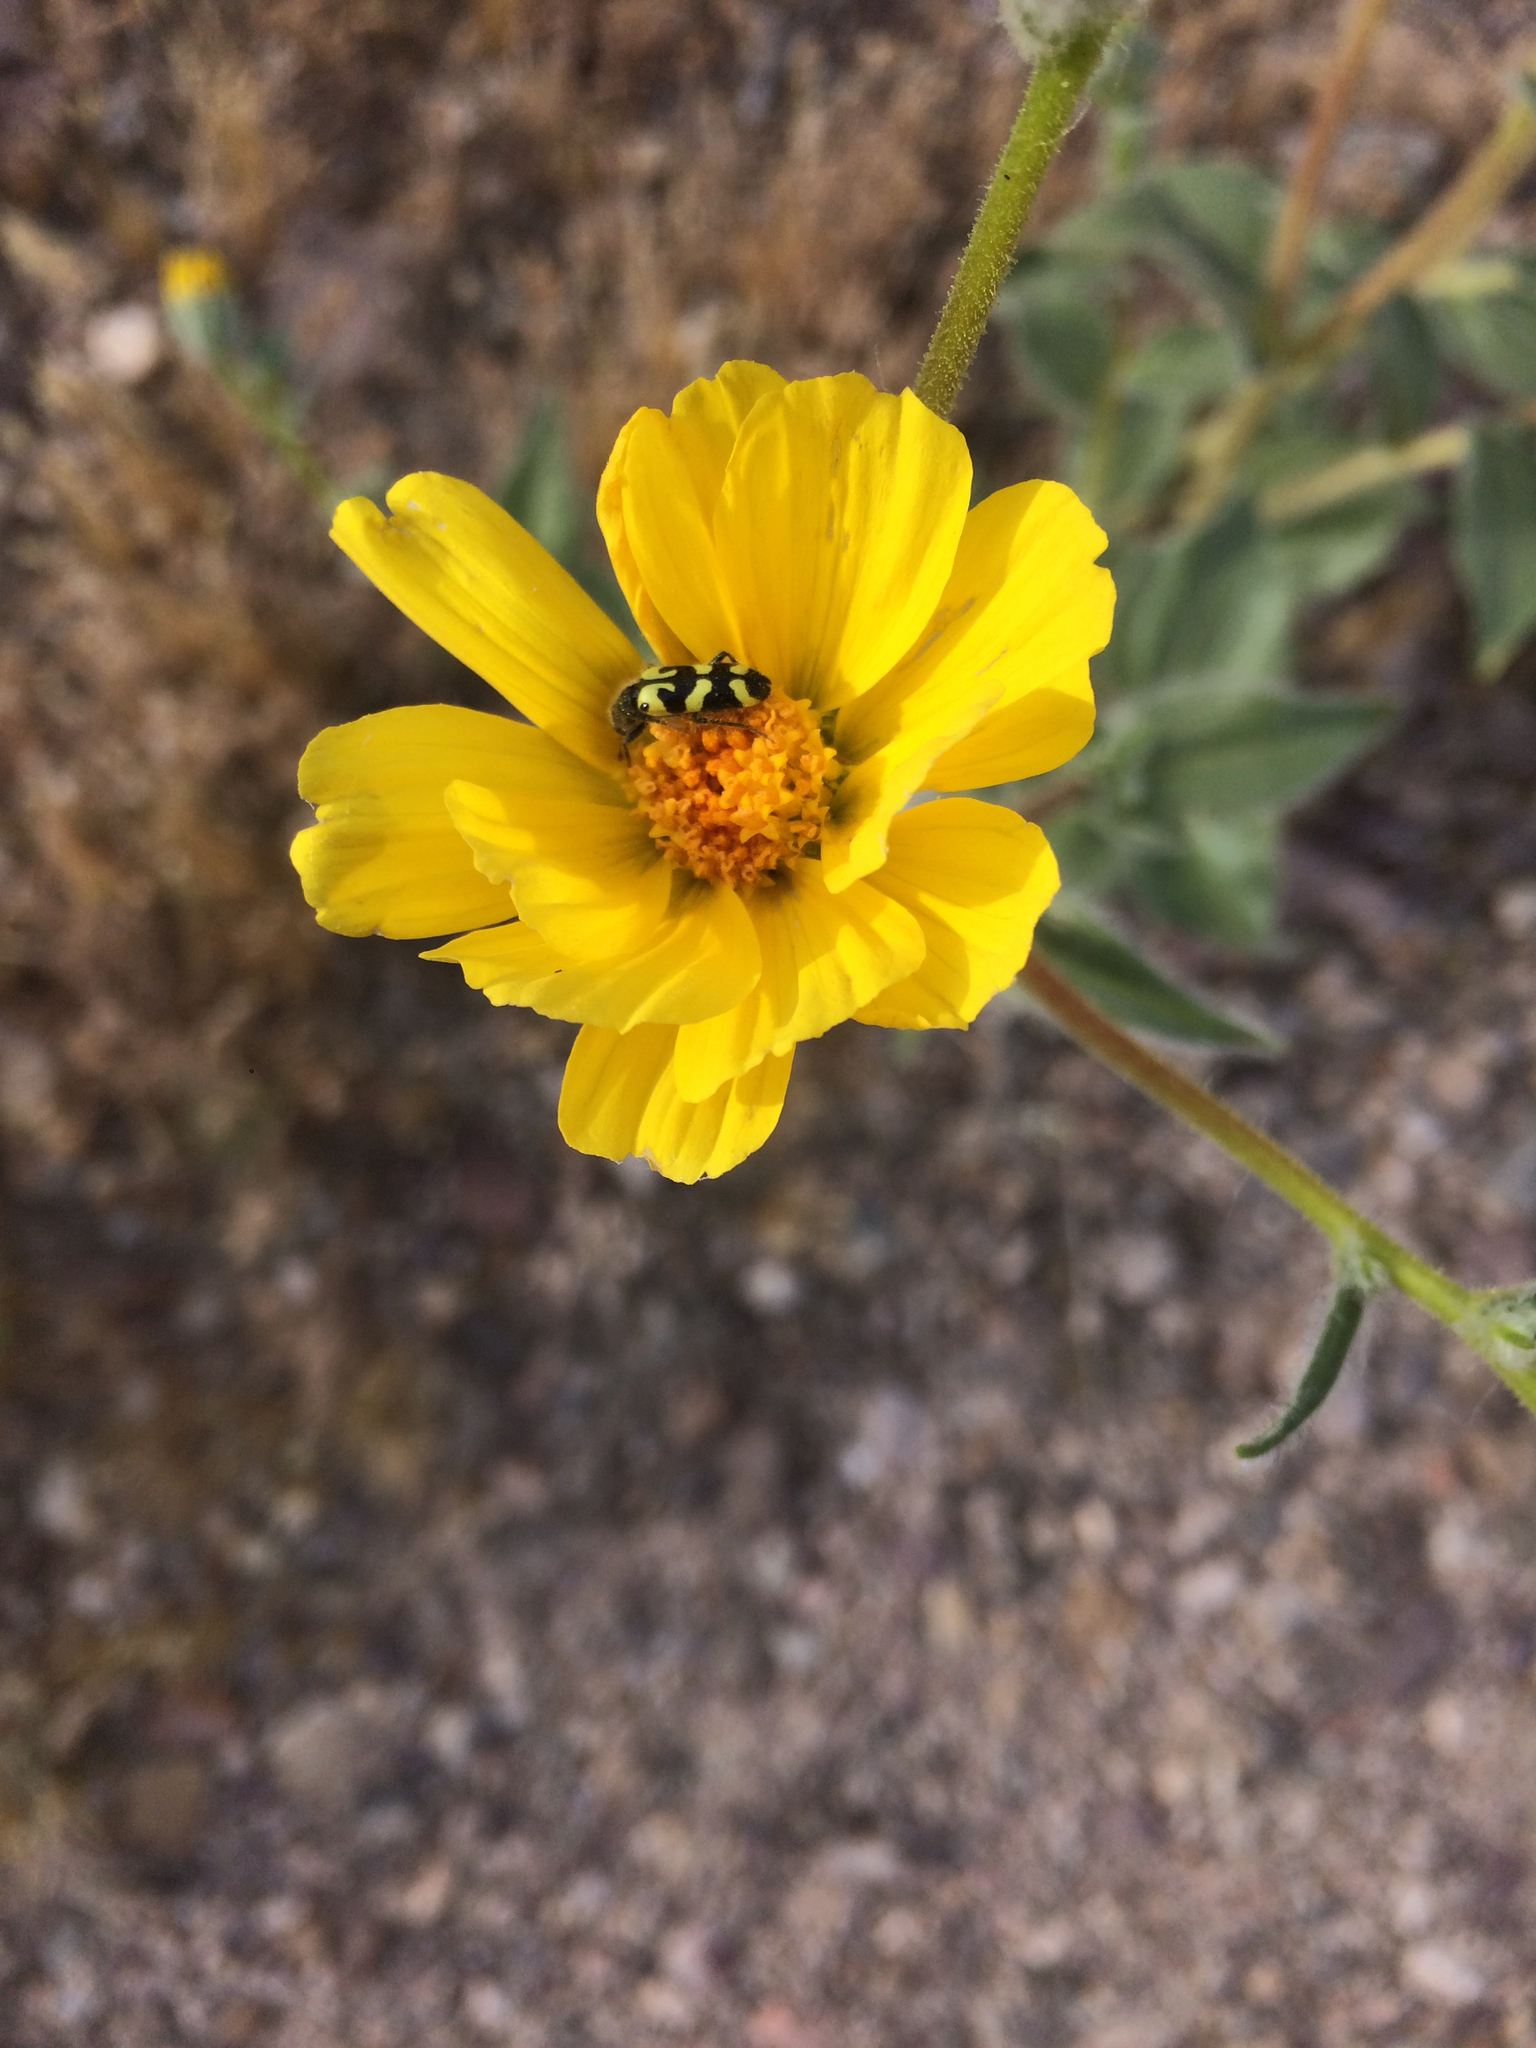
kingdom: Plantae
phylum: Tracheophyta
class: Magnoliopsida
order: Asterales
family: Asteraceae
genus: Geraea
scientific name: Geraea canescens
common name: Desert-gold
